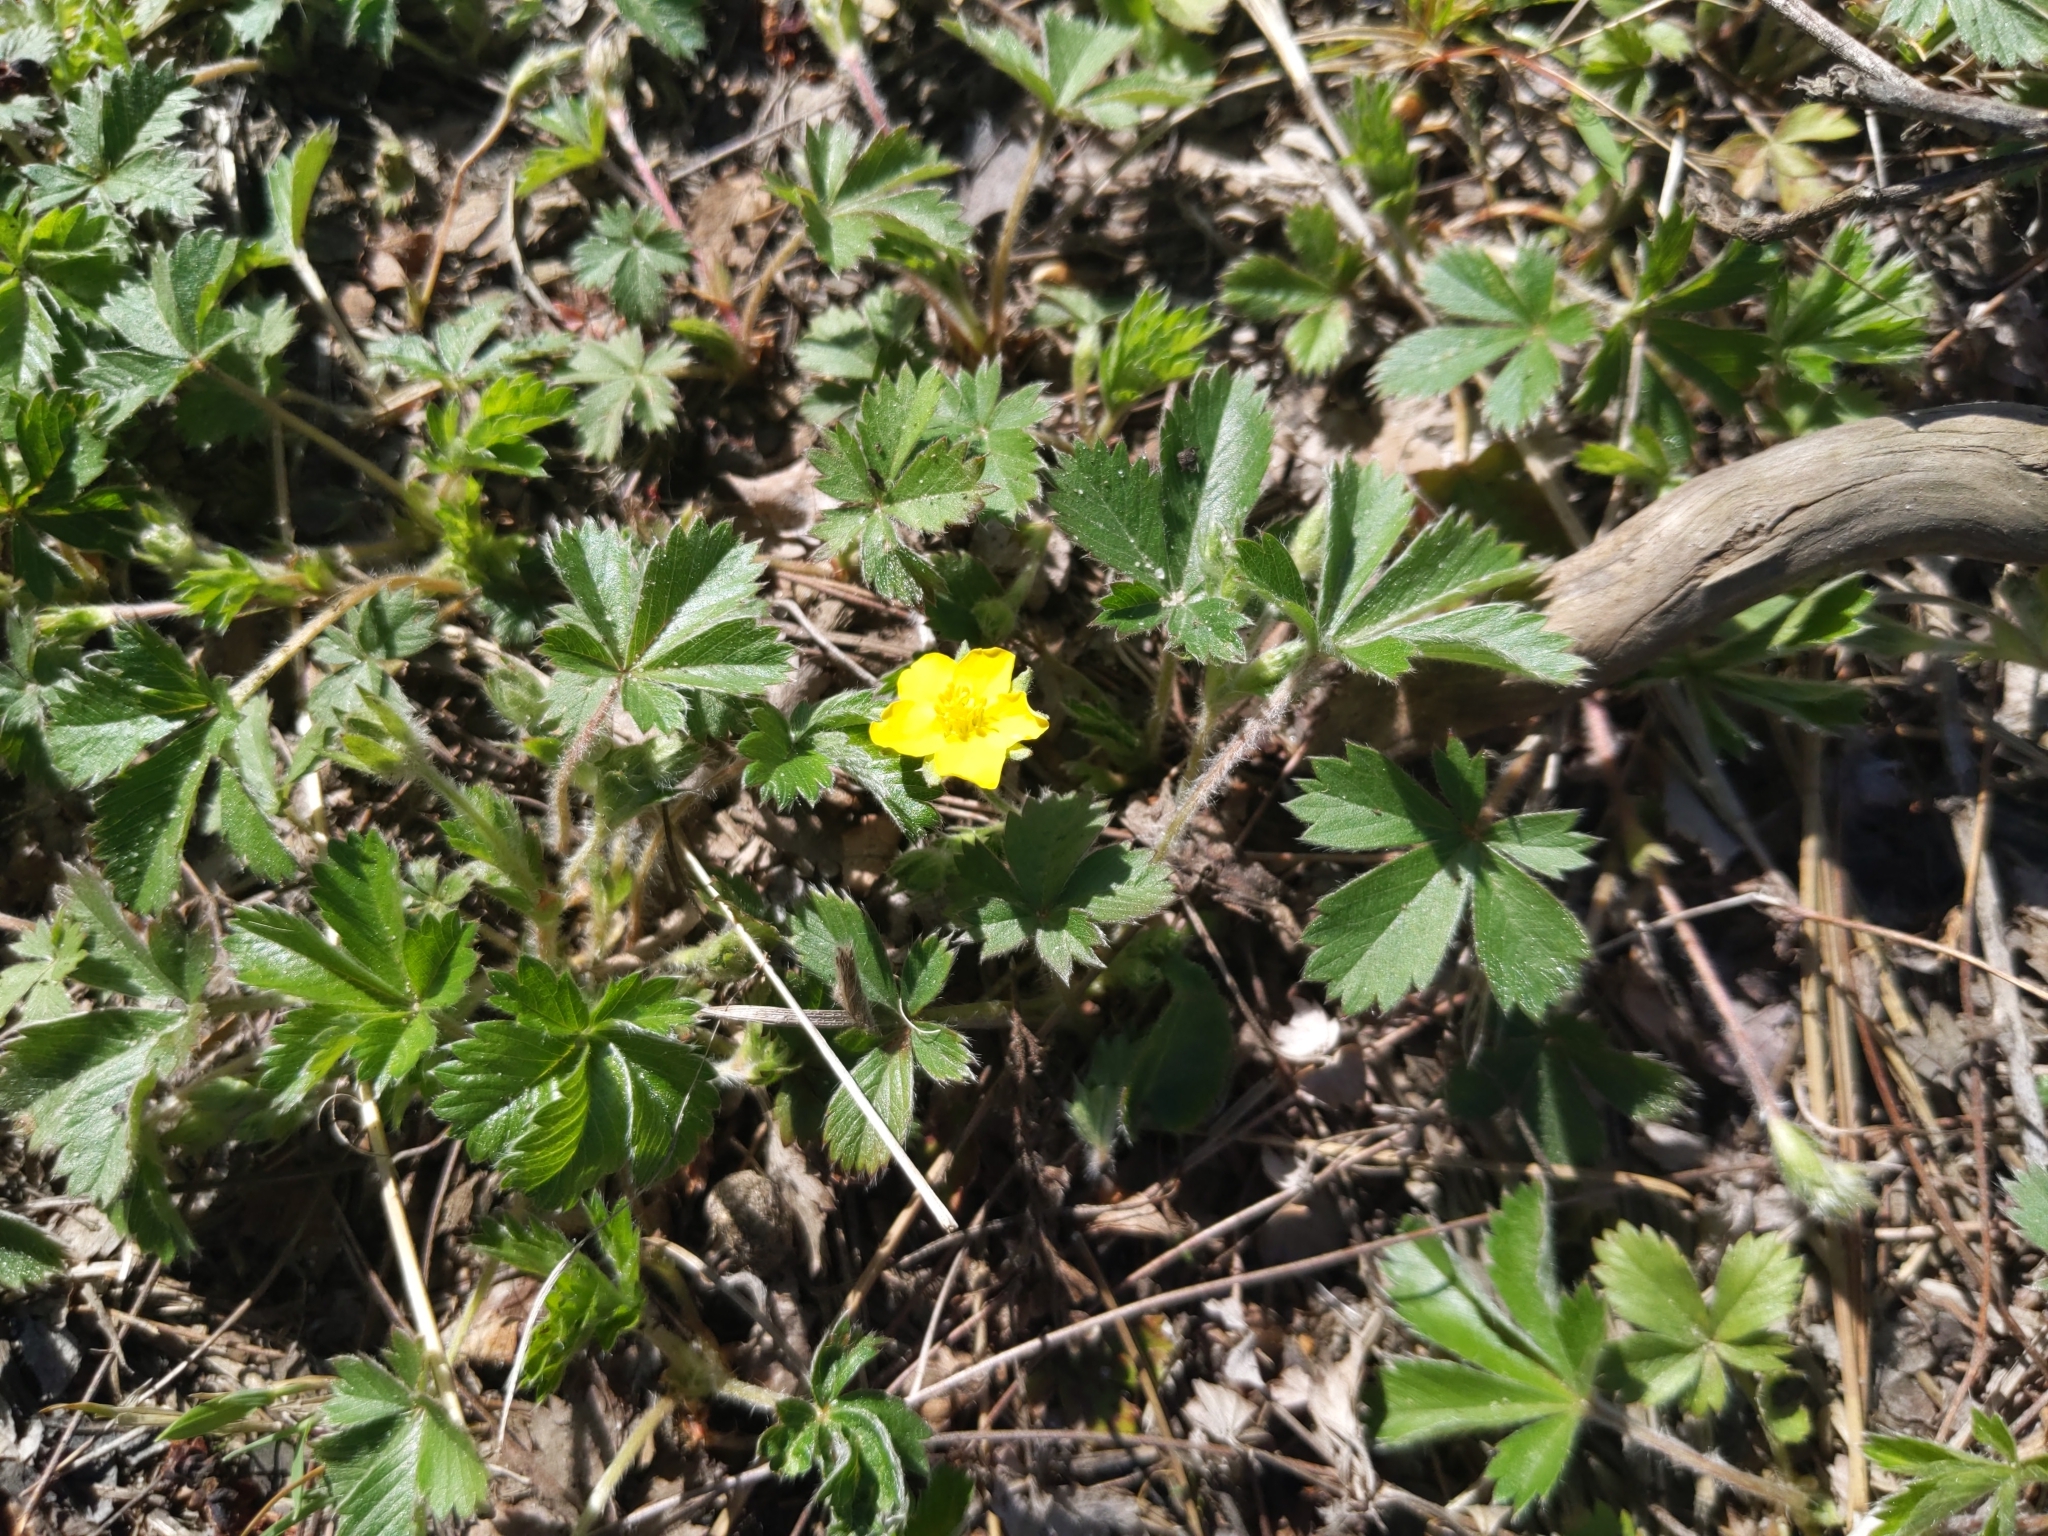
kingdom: Plantae
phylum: Tracheophyta
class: Magnoliopsida
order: Rosales
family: Rosaceae
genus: Potentilla
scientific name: Potentilla canadensis
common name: Canada cinquefoil
